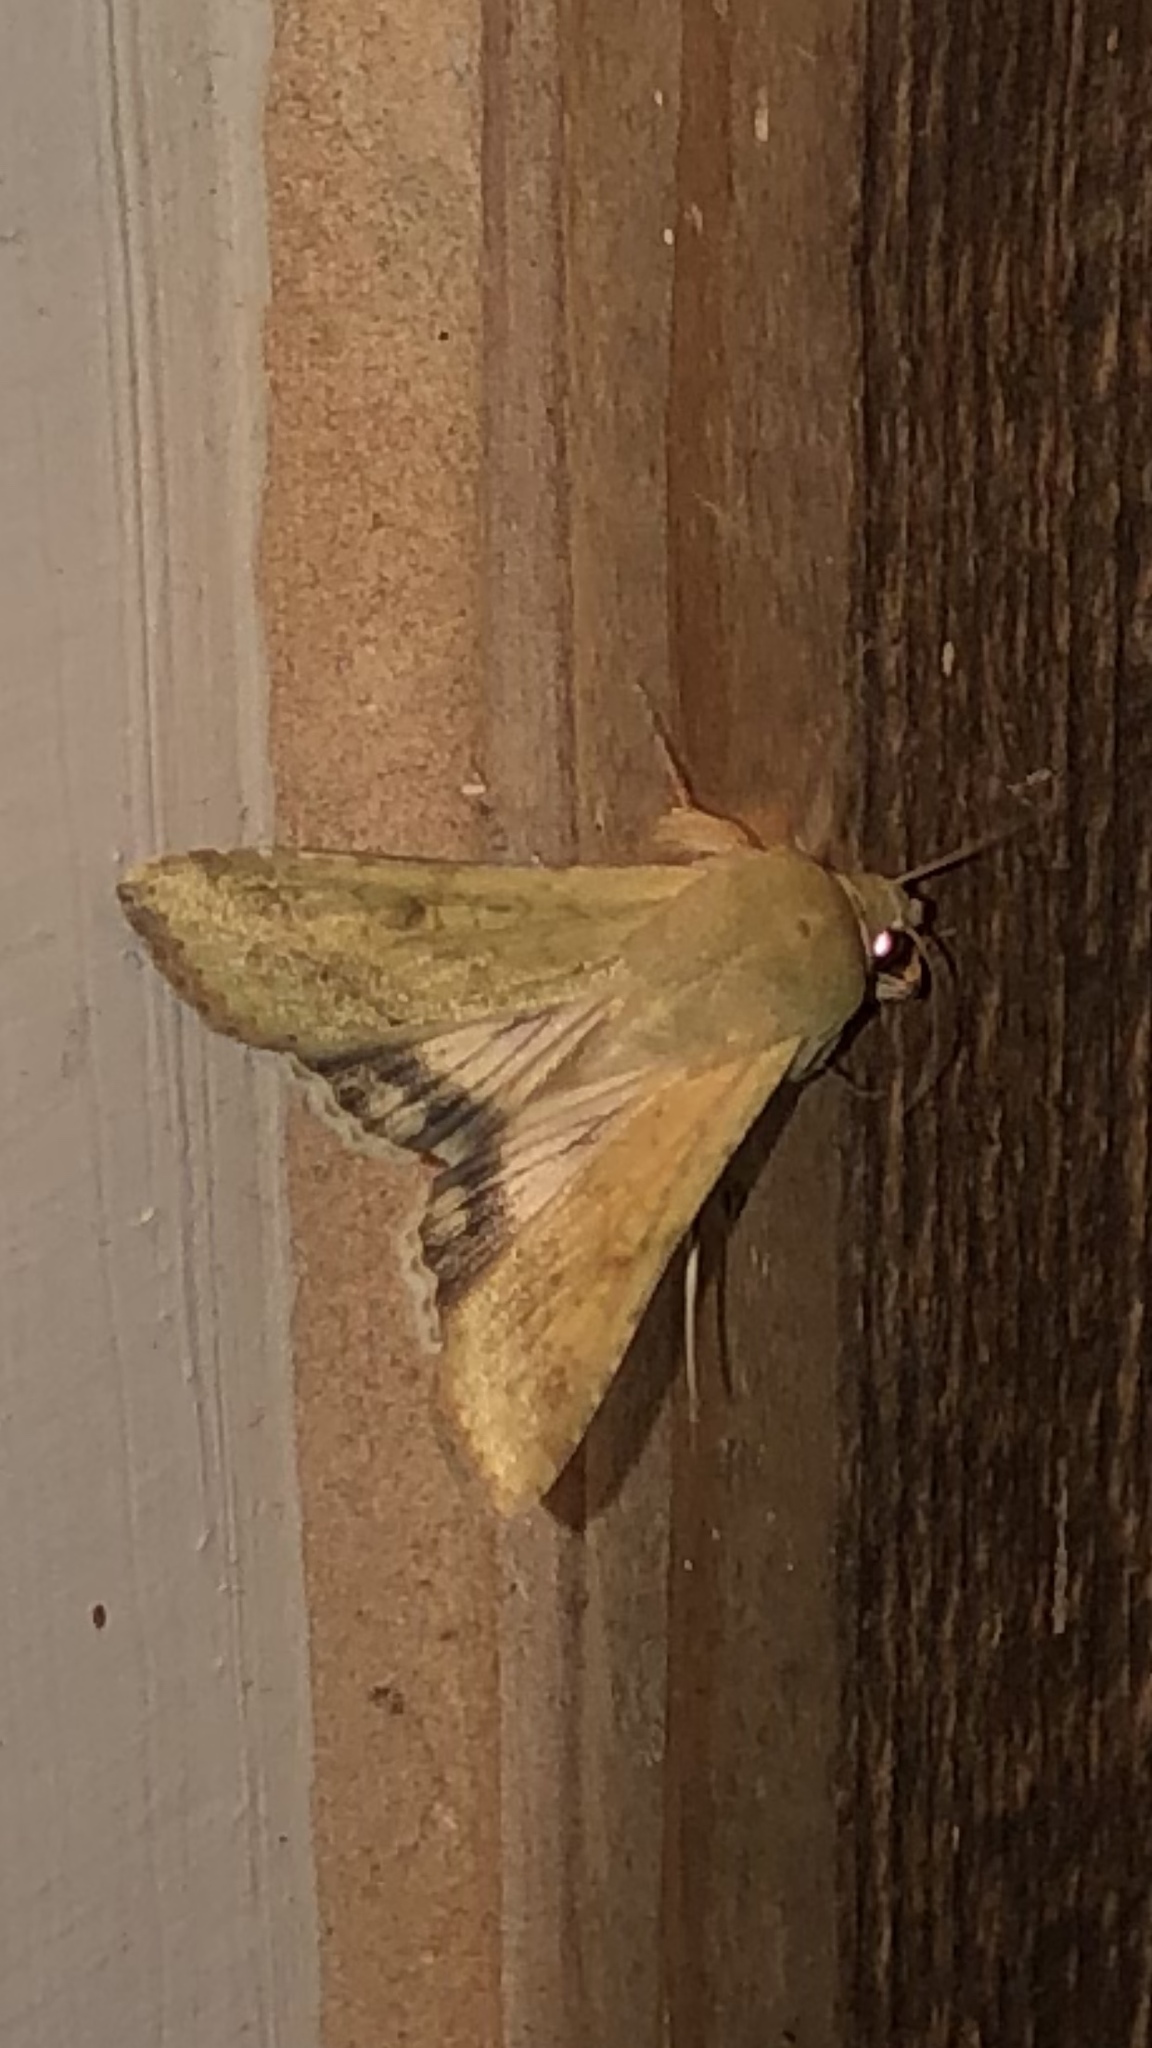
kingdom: Animalia
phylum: Arthropoda
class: Insecta
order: Lepidoptera
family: Noctuidae
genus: Helicoverpa
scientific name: Helicoverpa zea
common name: Bollworm
